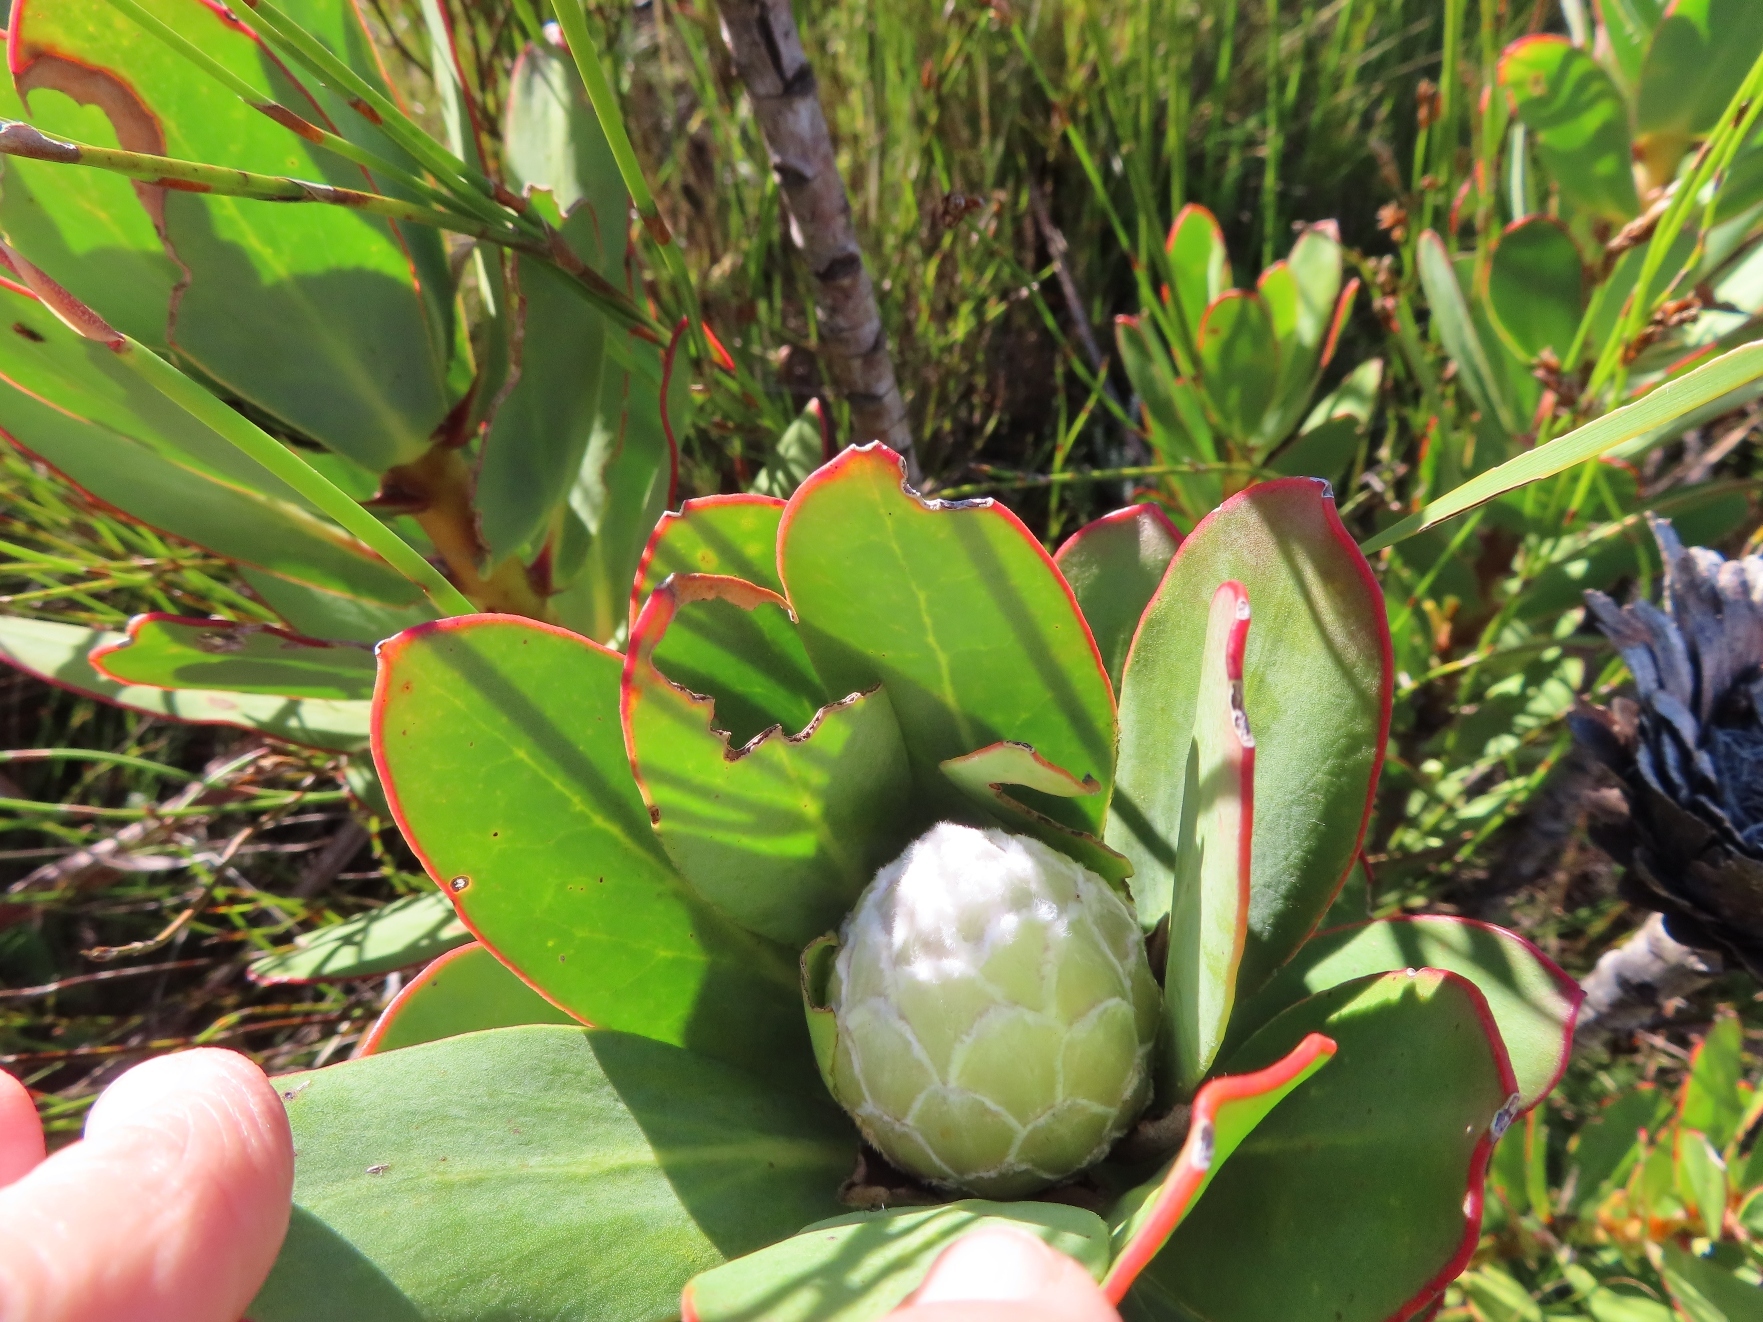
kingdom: Plantae
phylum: Tracheophyta
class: Magnoliopsida
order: Proteales
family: Proteaceae
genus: Protea
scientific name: Protea speciosa
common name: Brown-beard sugarbush
